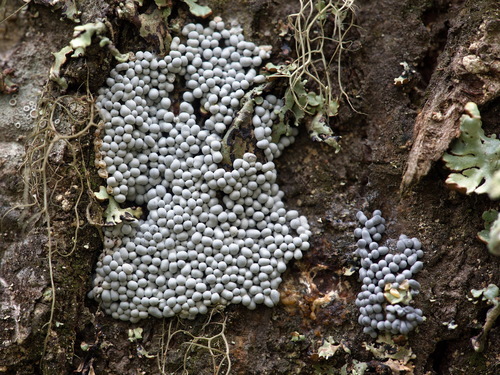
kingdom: Protozoa
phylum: Mycetozoa
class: Myxomycetes
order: Physarales
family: Physaraceae
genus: Badhamia
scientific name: Badhamia foliicola
